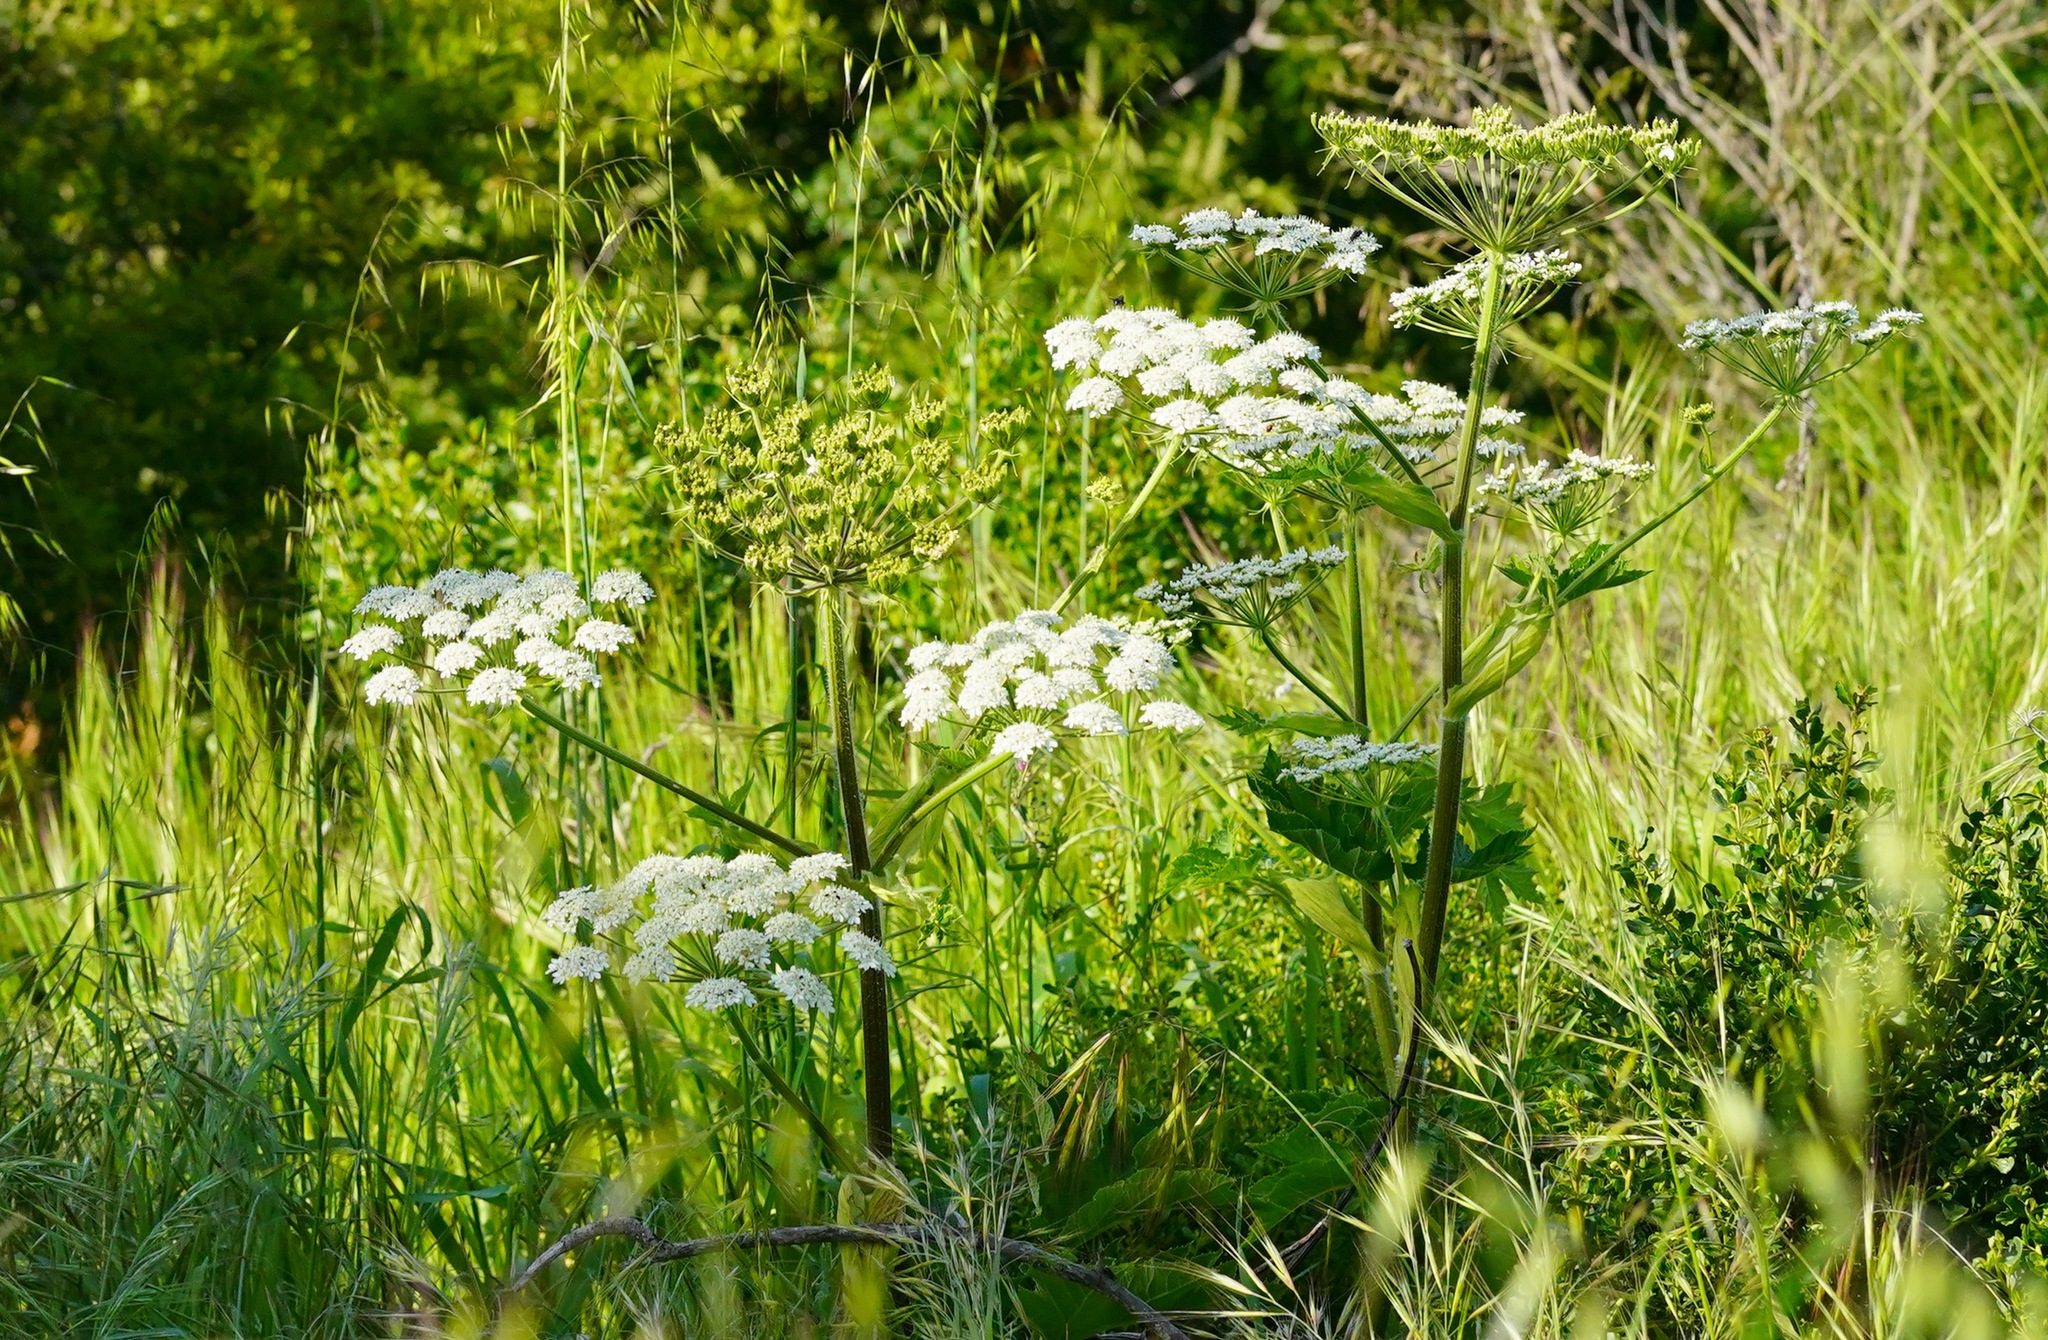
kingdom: Plantae
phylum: Tracheophyta
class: Magnoliopsida
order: Apiales
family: Apiaceae
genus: Heracleum
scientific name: Heracleum maximum
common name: American cow parsnip
